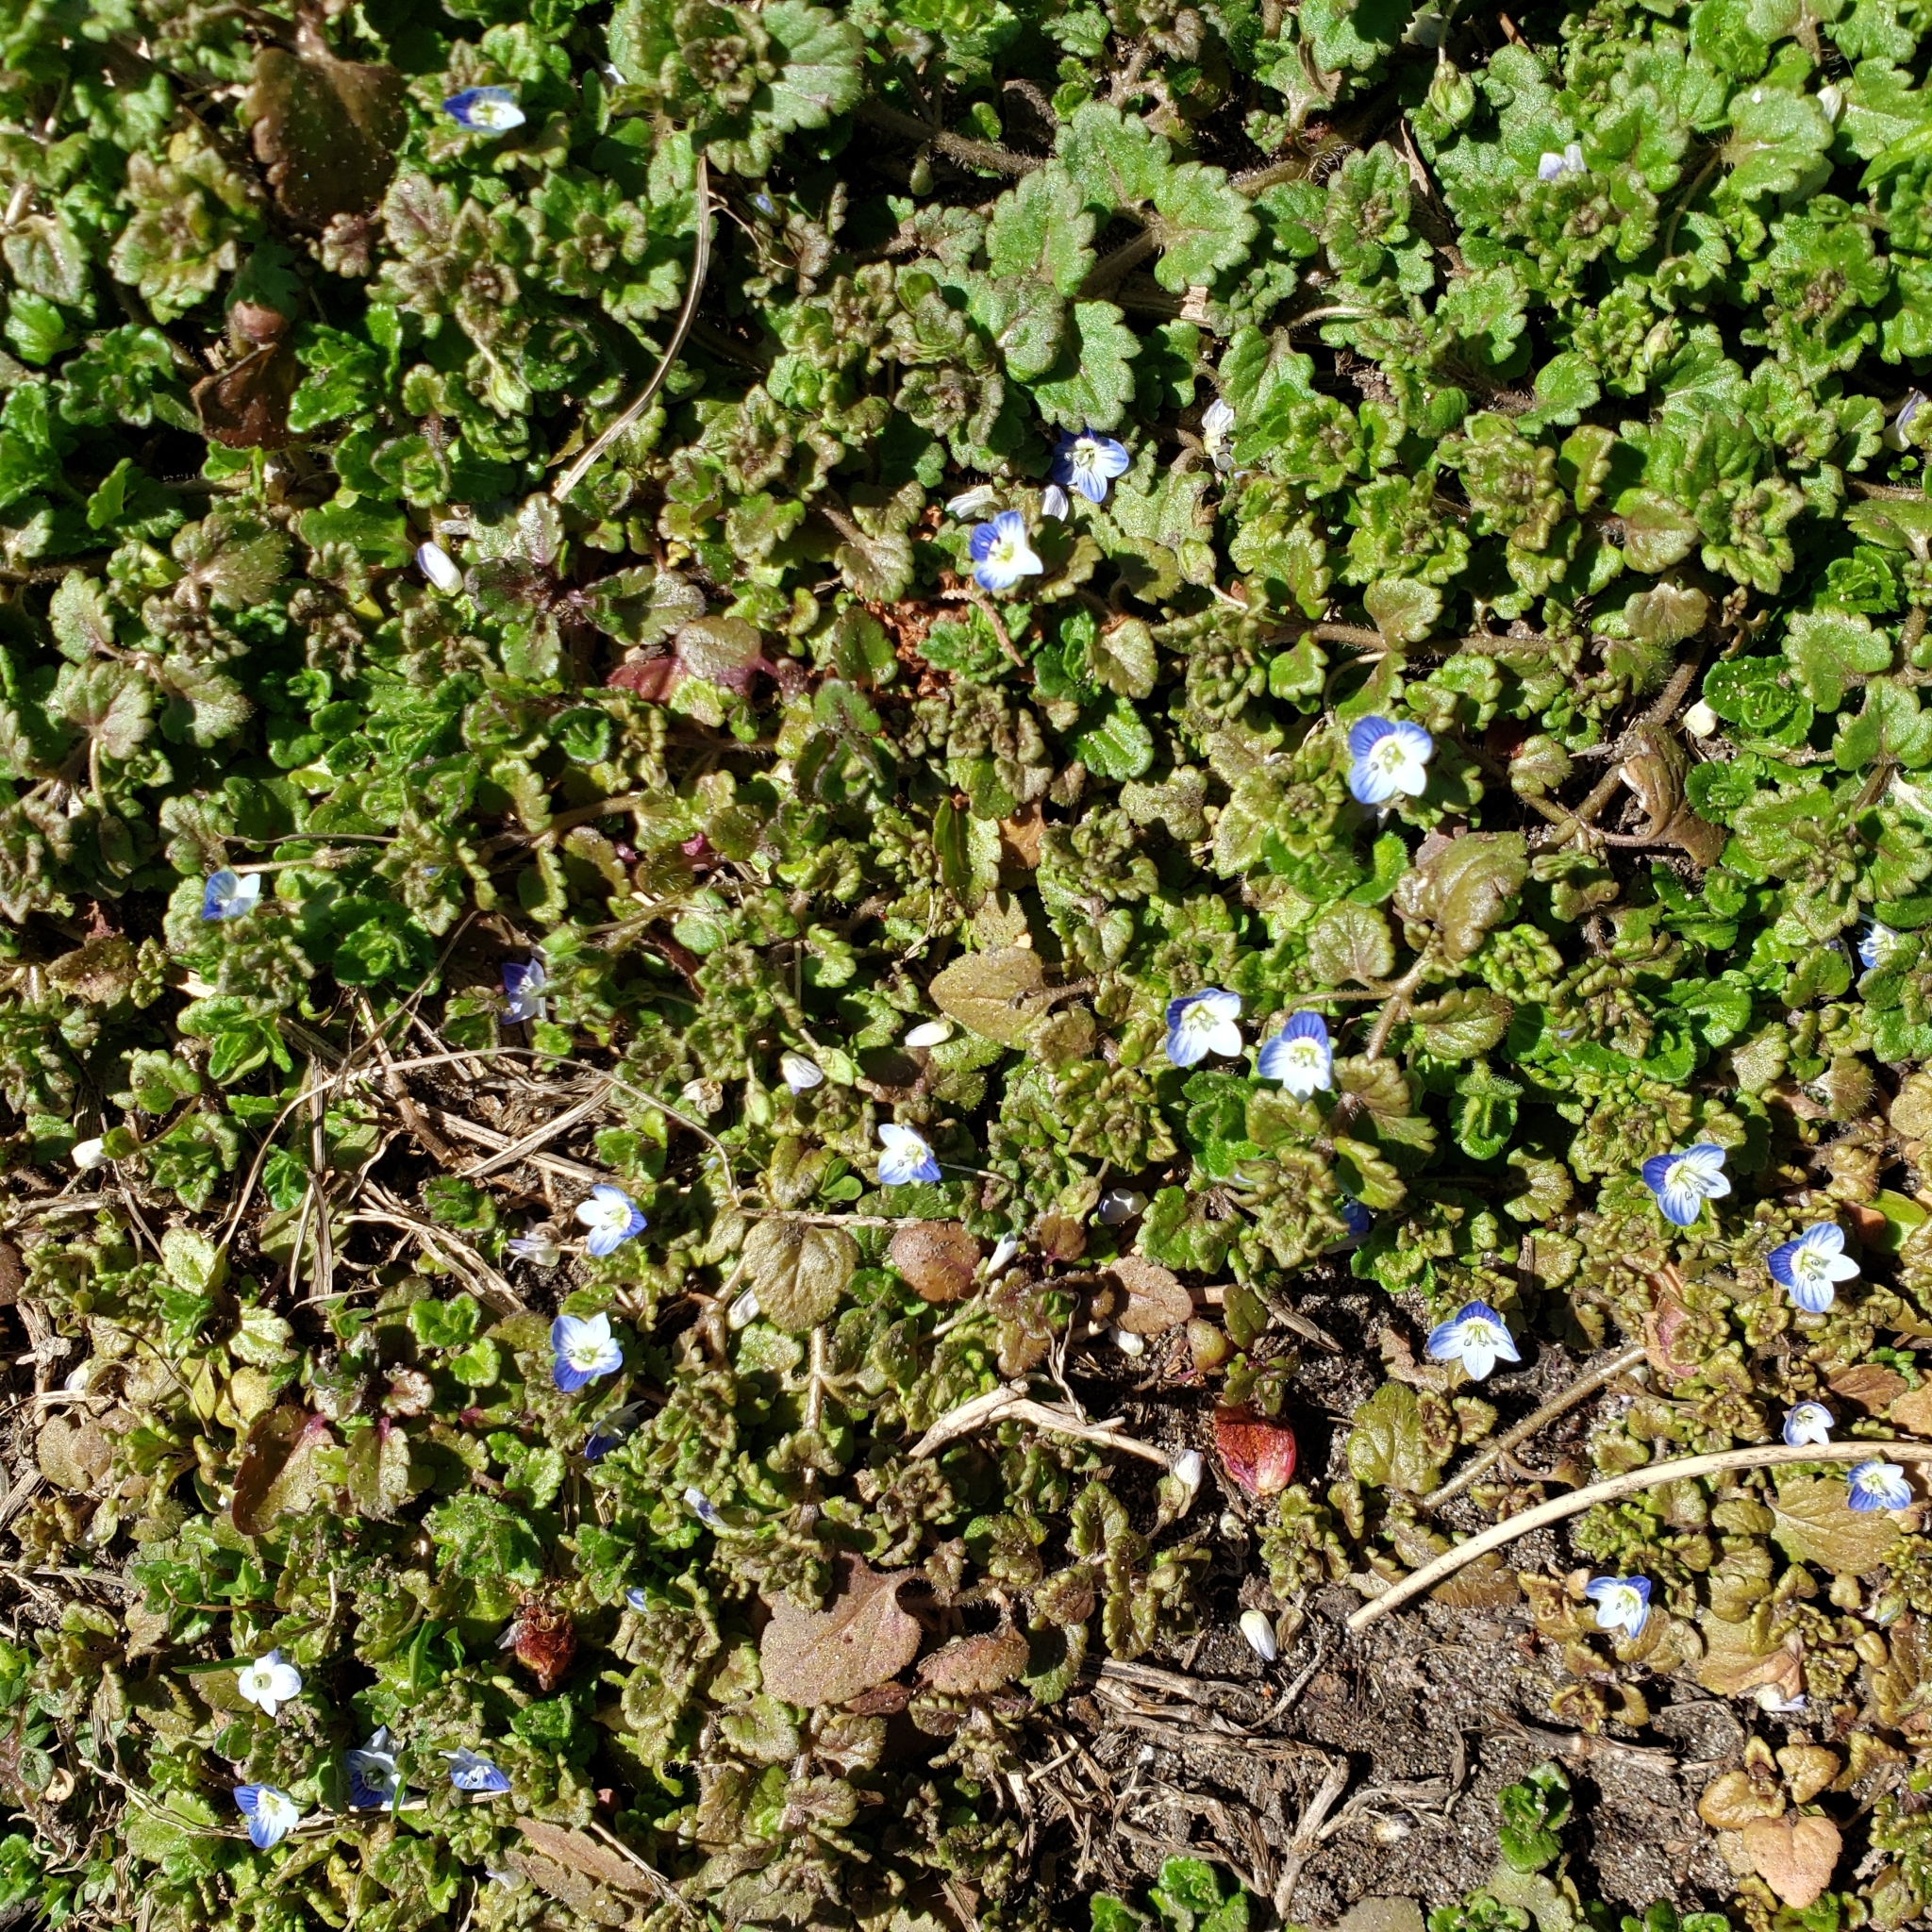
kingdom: Plantae
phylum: Tracheophyta
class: Magnoliopsida
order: Lamiales
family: Plantaginaceae
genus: Veronica
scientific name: Veronica persica
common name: Common field-speedwell
